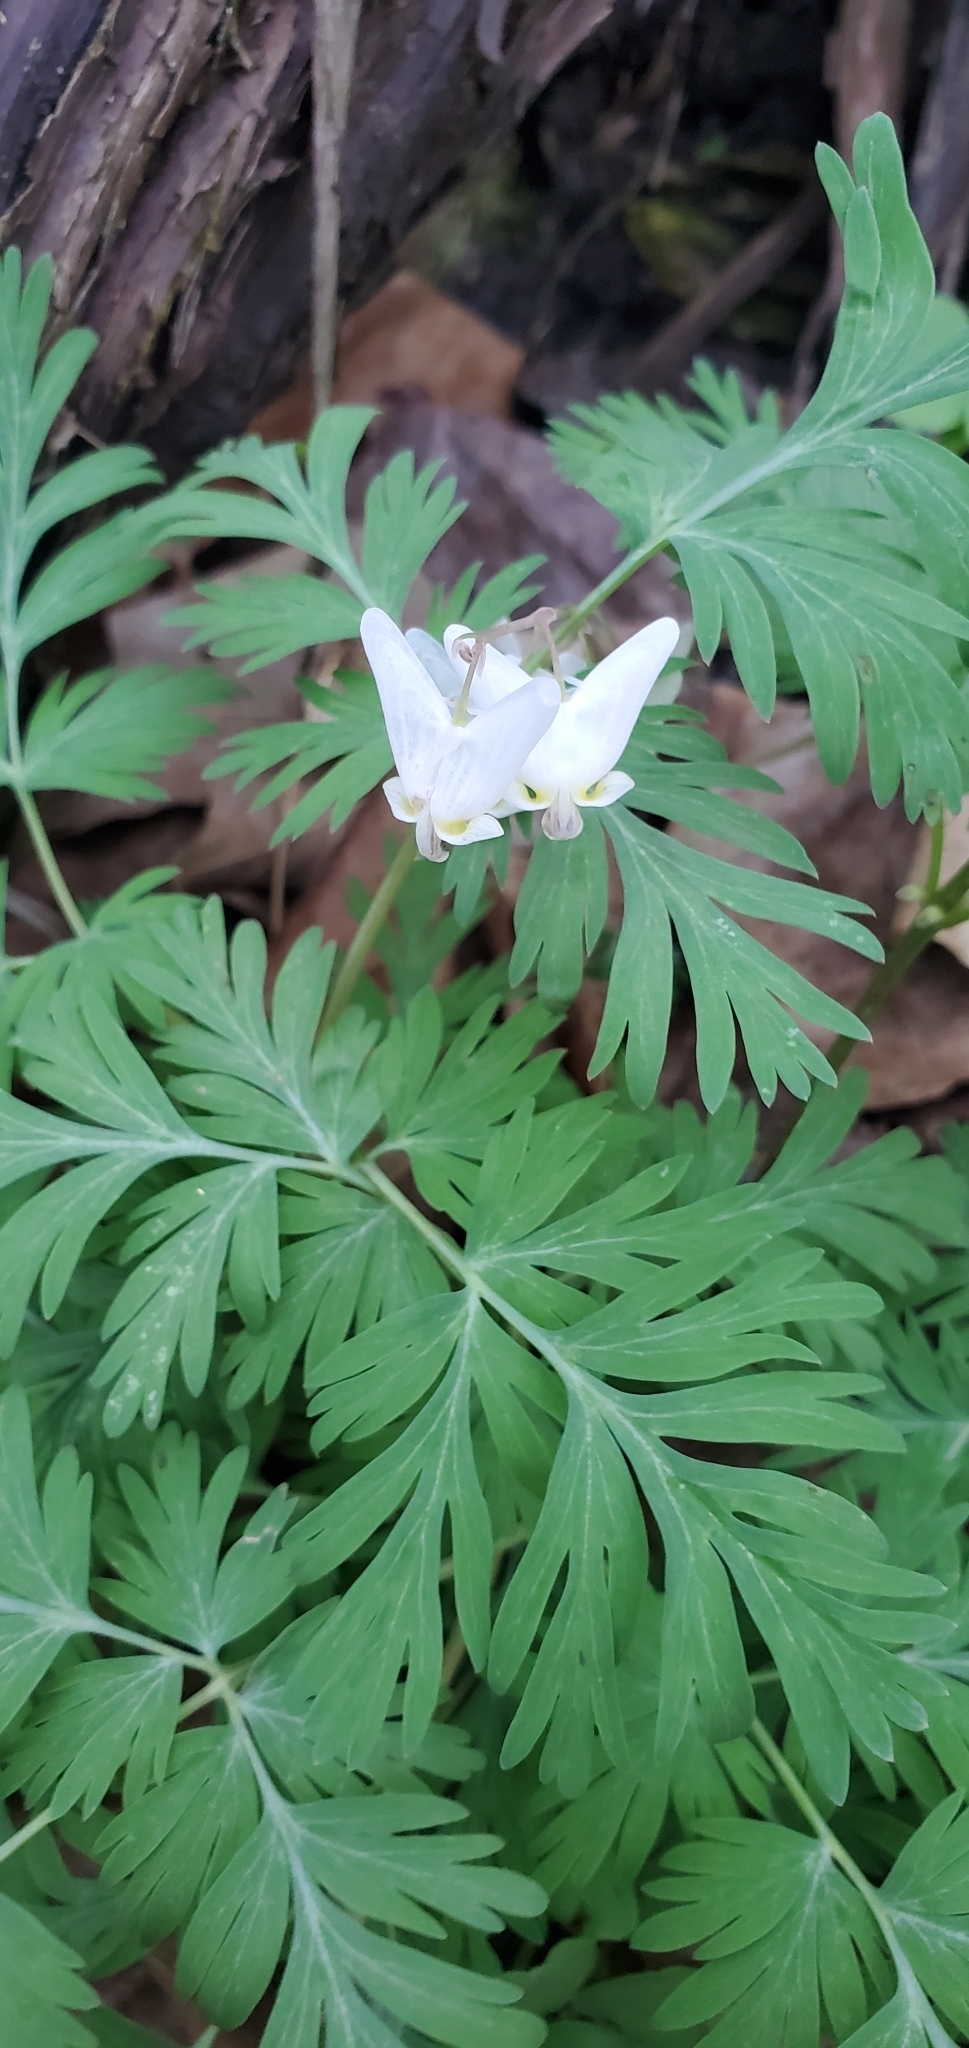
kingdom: Plantae
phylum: Tracheophyta
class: Magnoliopsida
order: Ranunculales
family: Papaveraceae
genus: Dicentra
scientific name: Dicentra cucullaria
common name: Dutchman's breeches
